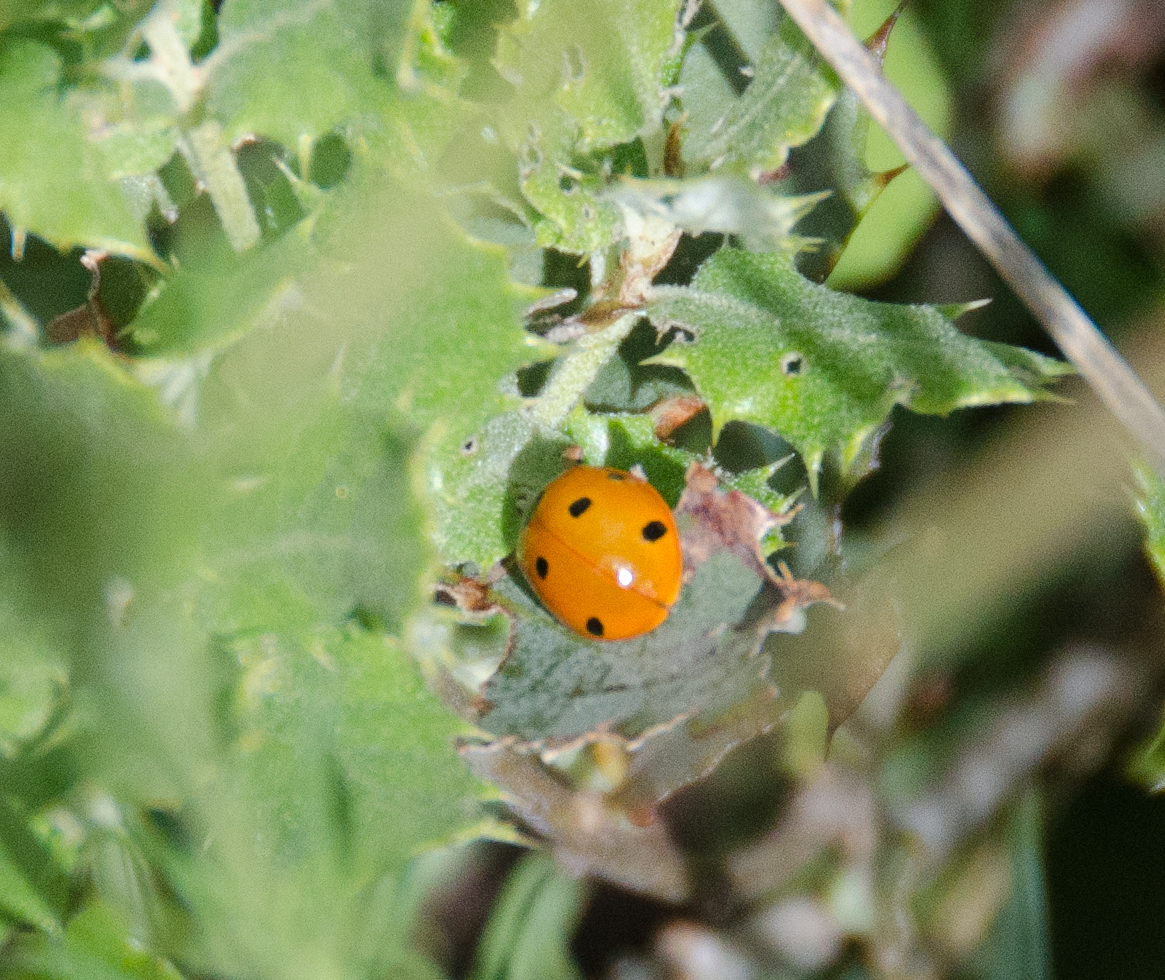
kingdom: Animalia
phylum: Arthropoda
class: Insecta
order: Coleoptera
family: Coccinellidae
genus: Coccinella
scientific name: Coccinella septempunctata
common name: Sevenspotted lady beetle
